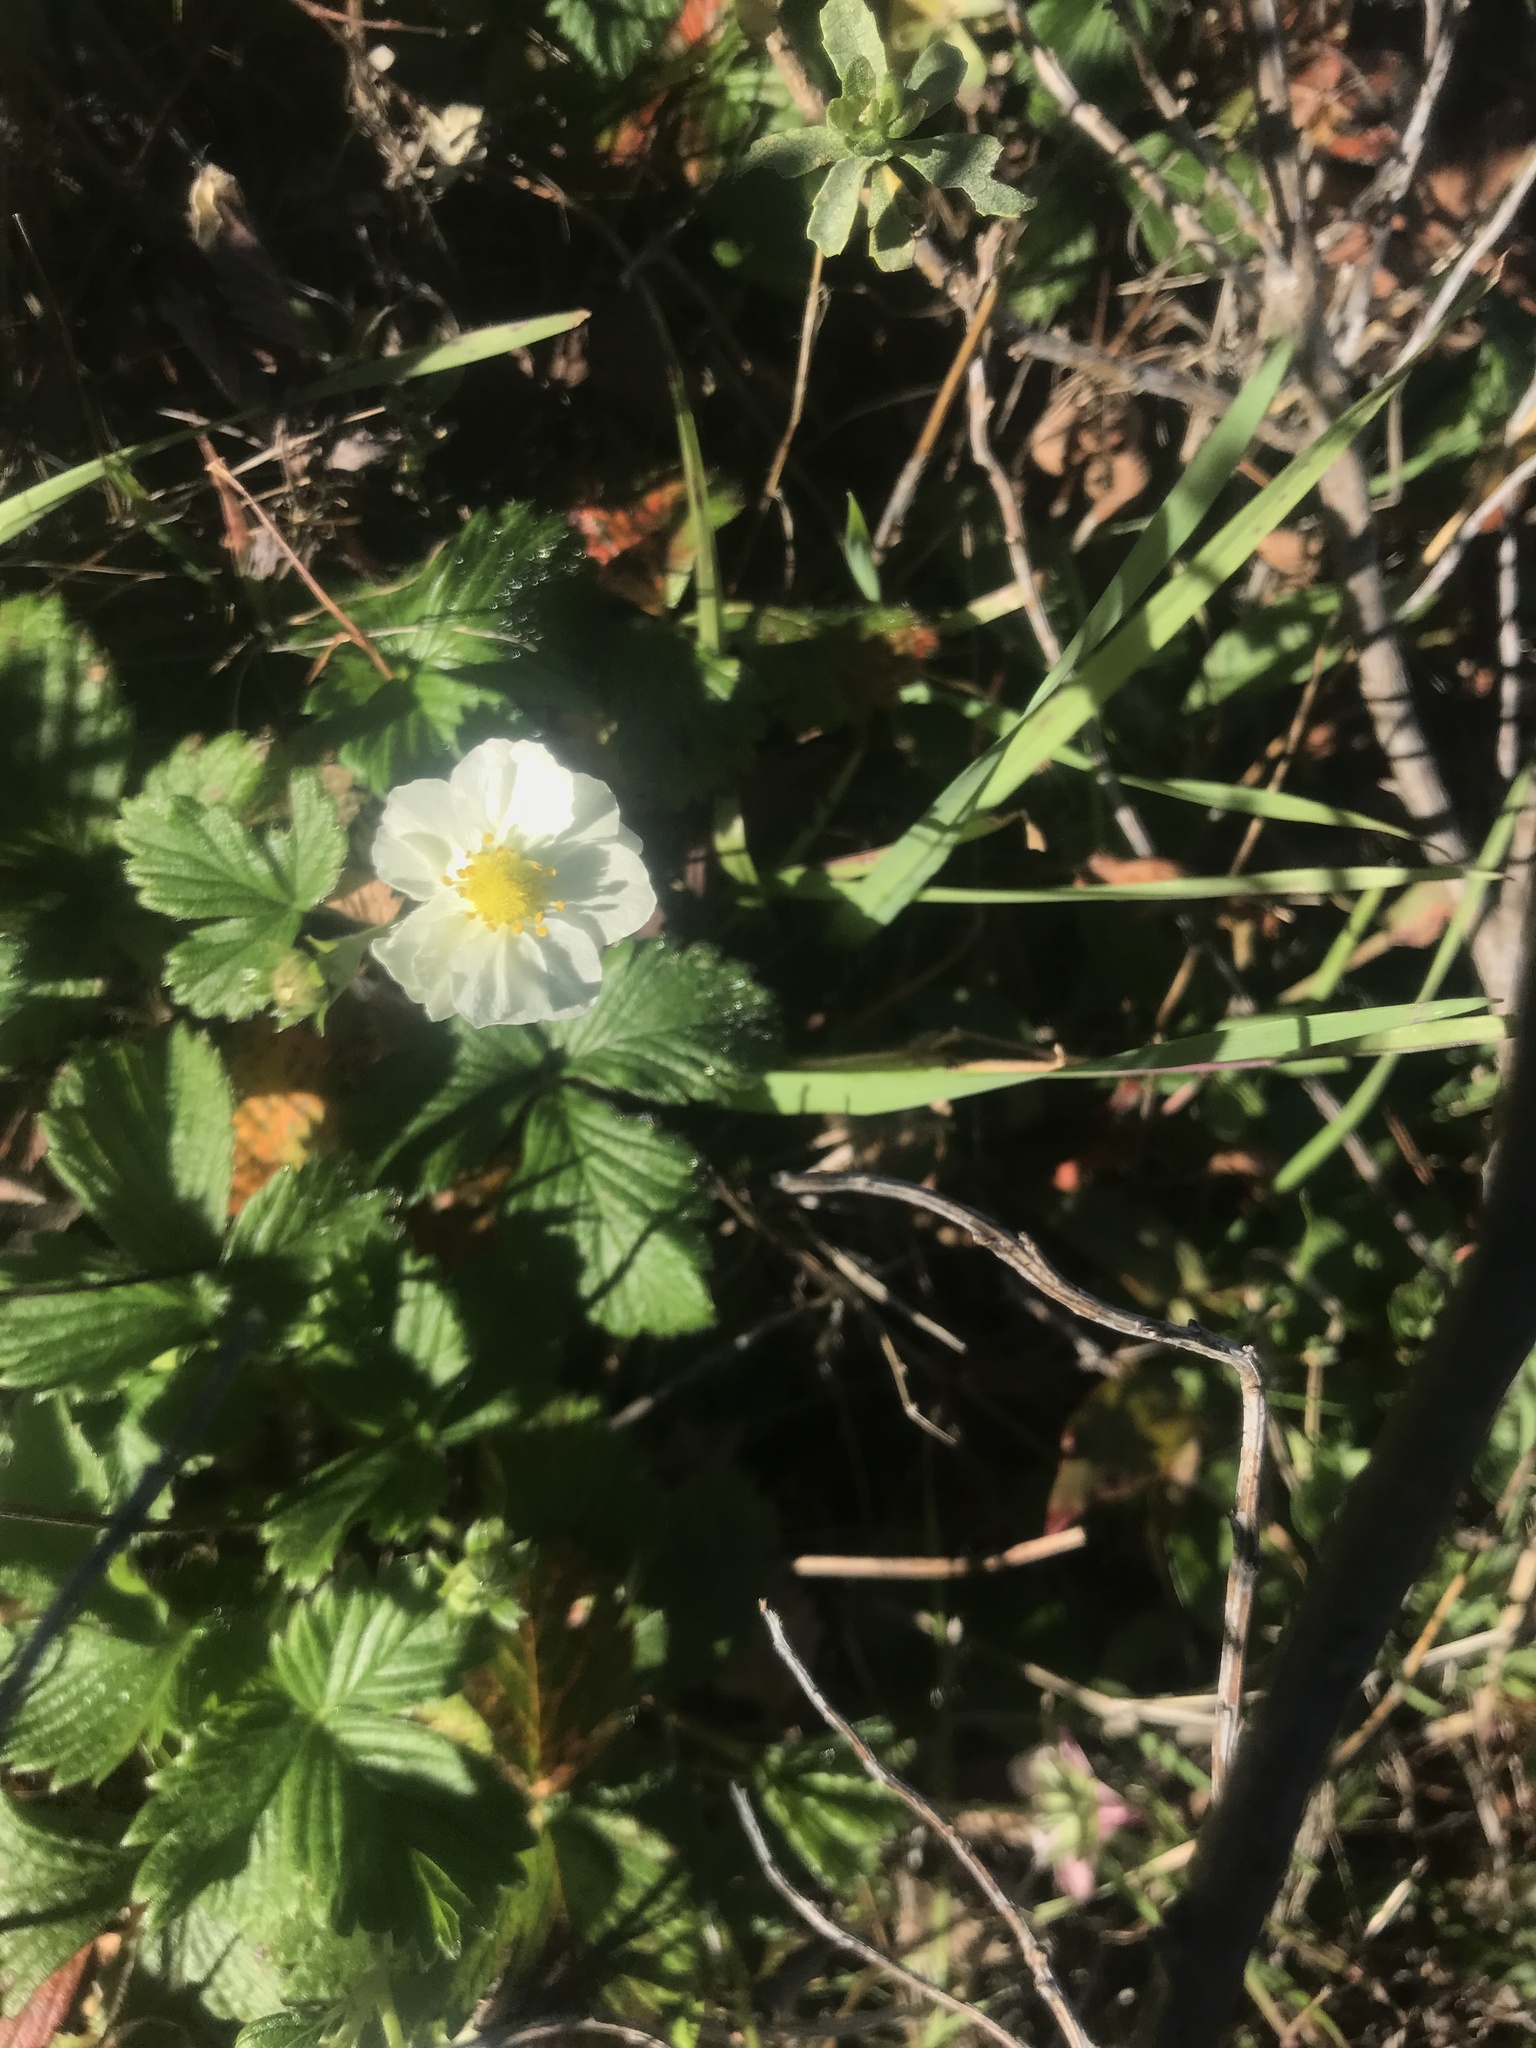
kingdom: Plantae
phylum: Tracheophyta
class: Magnoliopsida
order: Rosales
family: Rosaceae
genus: Fragaria
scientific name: Fragaria vesca
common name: Wild strawberry
